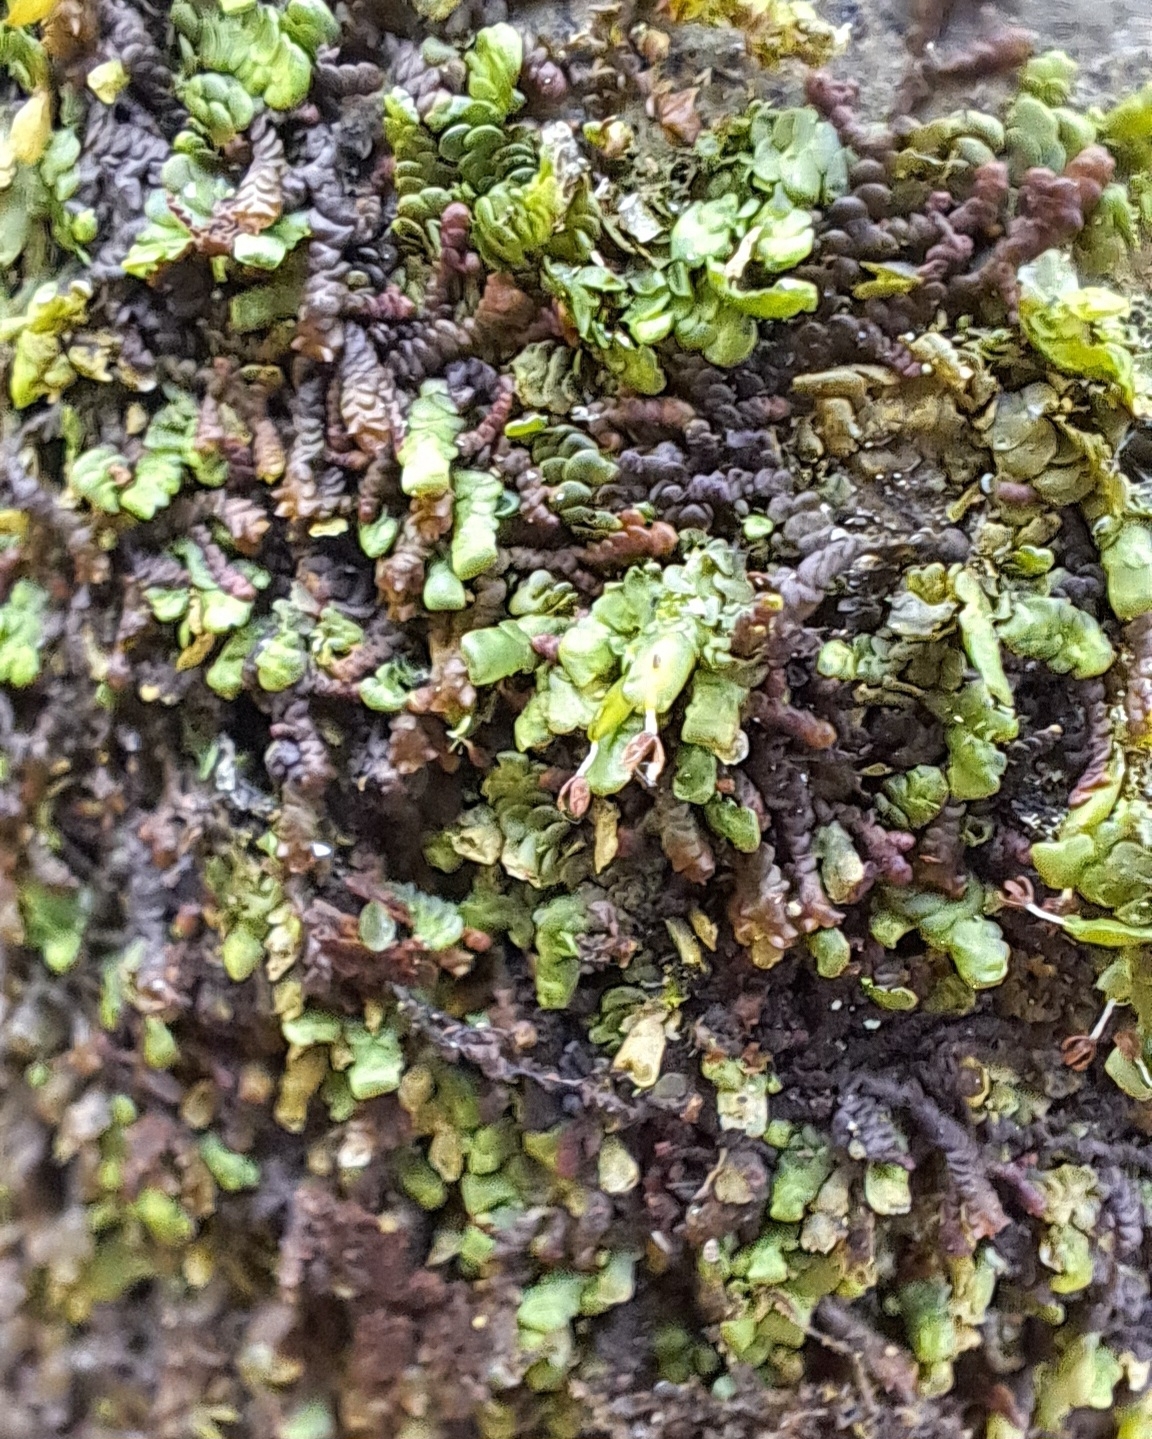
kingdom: Plantae
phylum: Marchantiophyta
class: Jungermanniopsida
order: Porellales
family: Radulaceae
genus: Radula
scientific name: Radula complanata
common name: Flat-leaved scalewort
